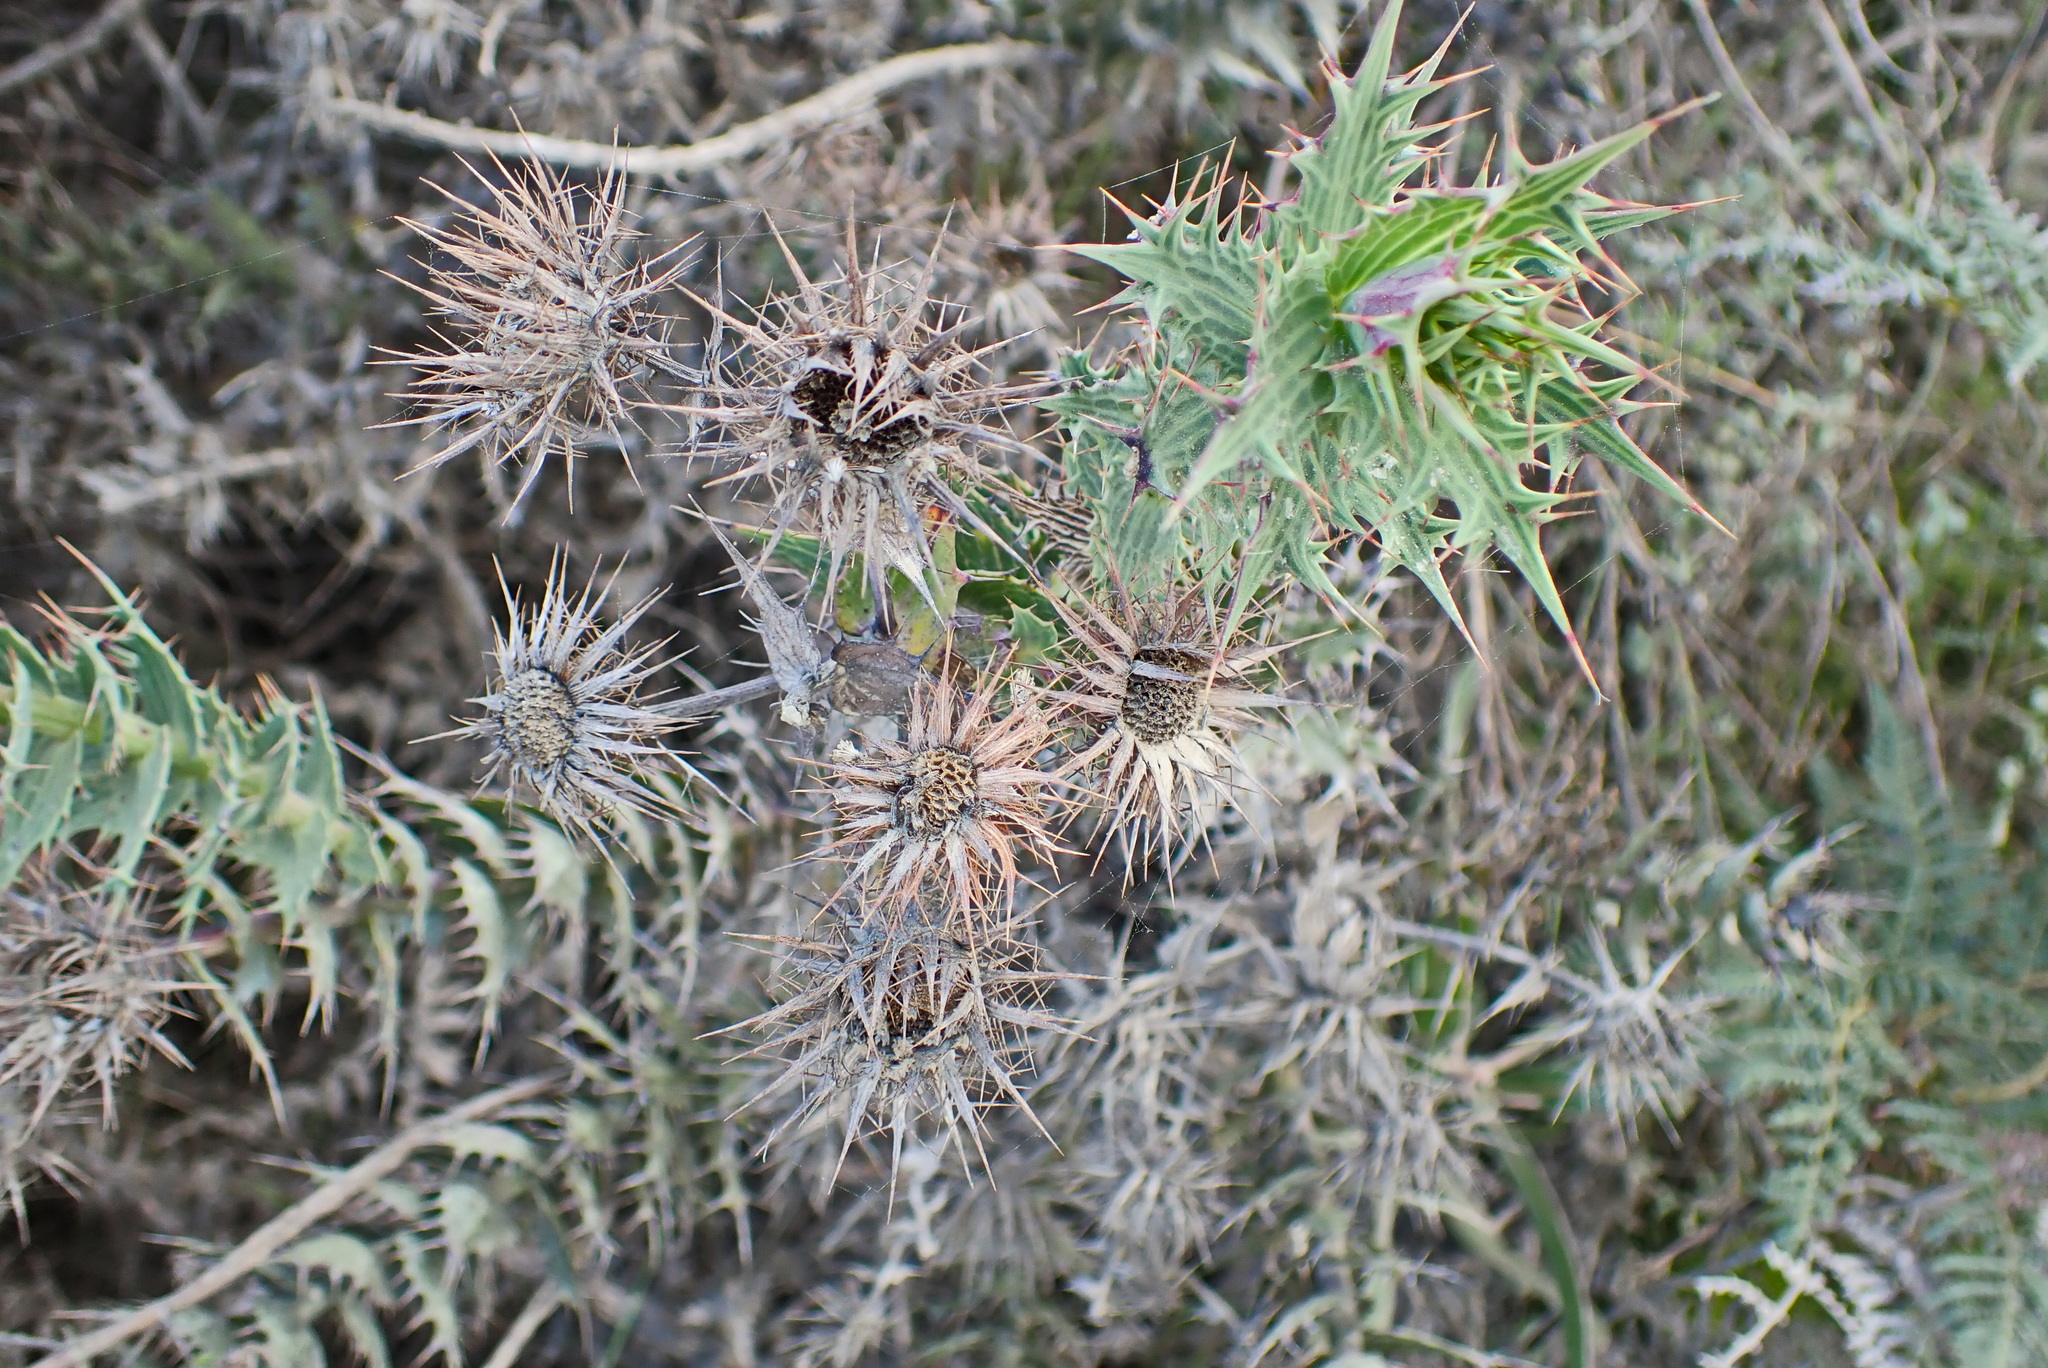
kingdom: Plantae
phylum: Tracheophyta
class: Magnoliopsida
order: Asterales
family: Asteraceae
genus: Berkheya
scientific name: Berkheya cruciata
